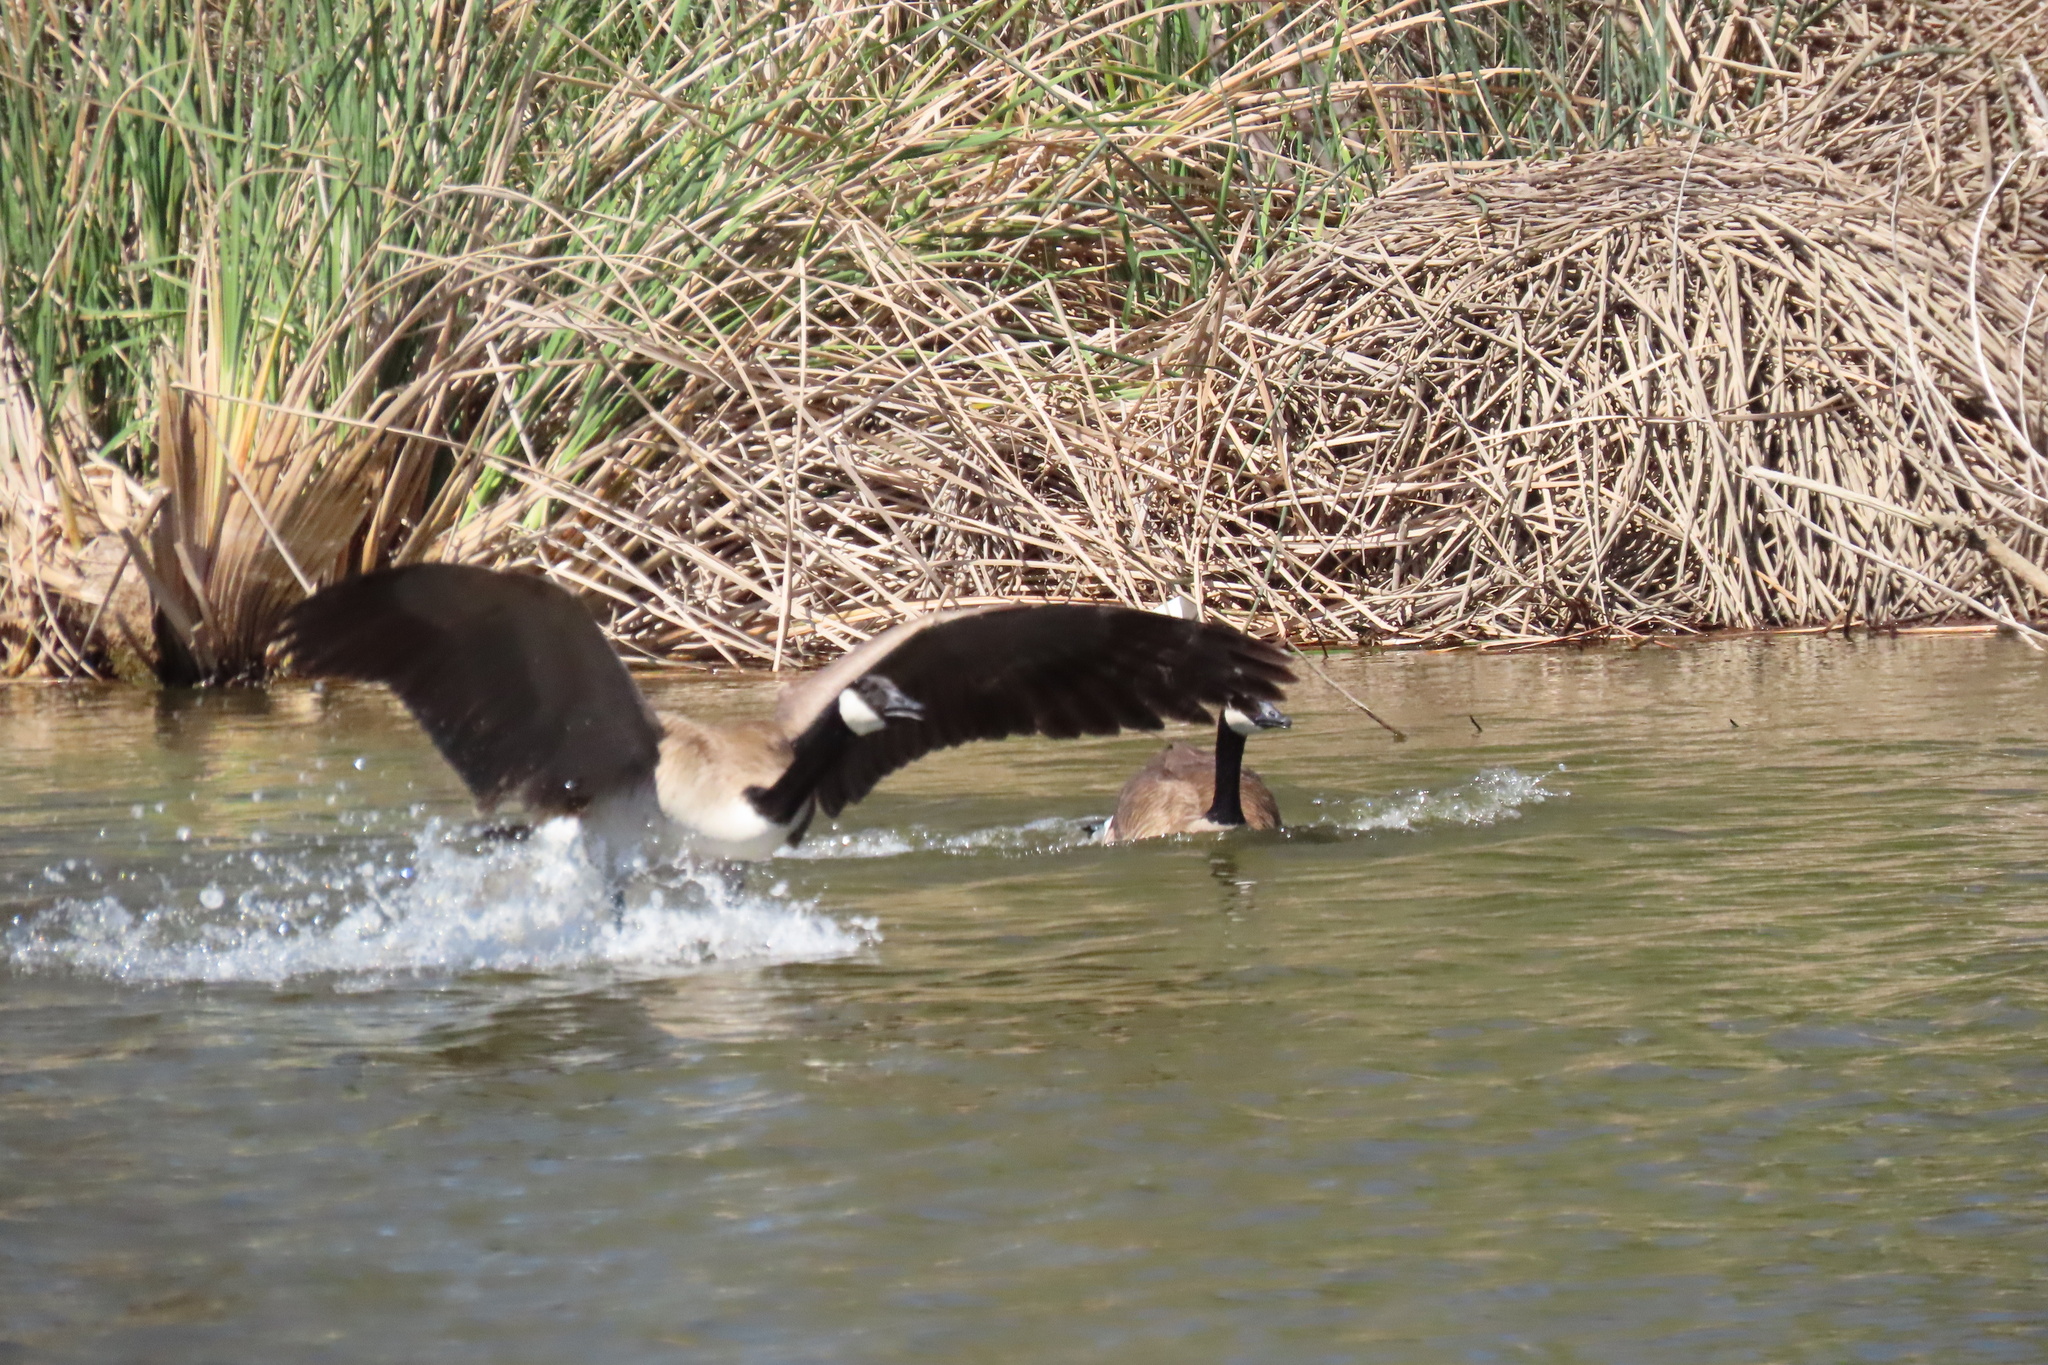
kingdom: Animalia
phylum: Chordata
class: Aves
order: Anseriformes
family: Anatidae
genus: Branta
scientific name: Branta canadensis
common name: Canada goose
